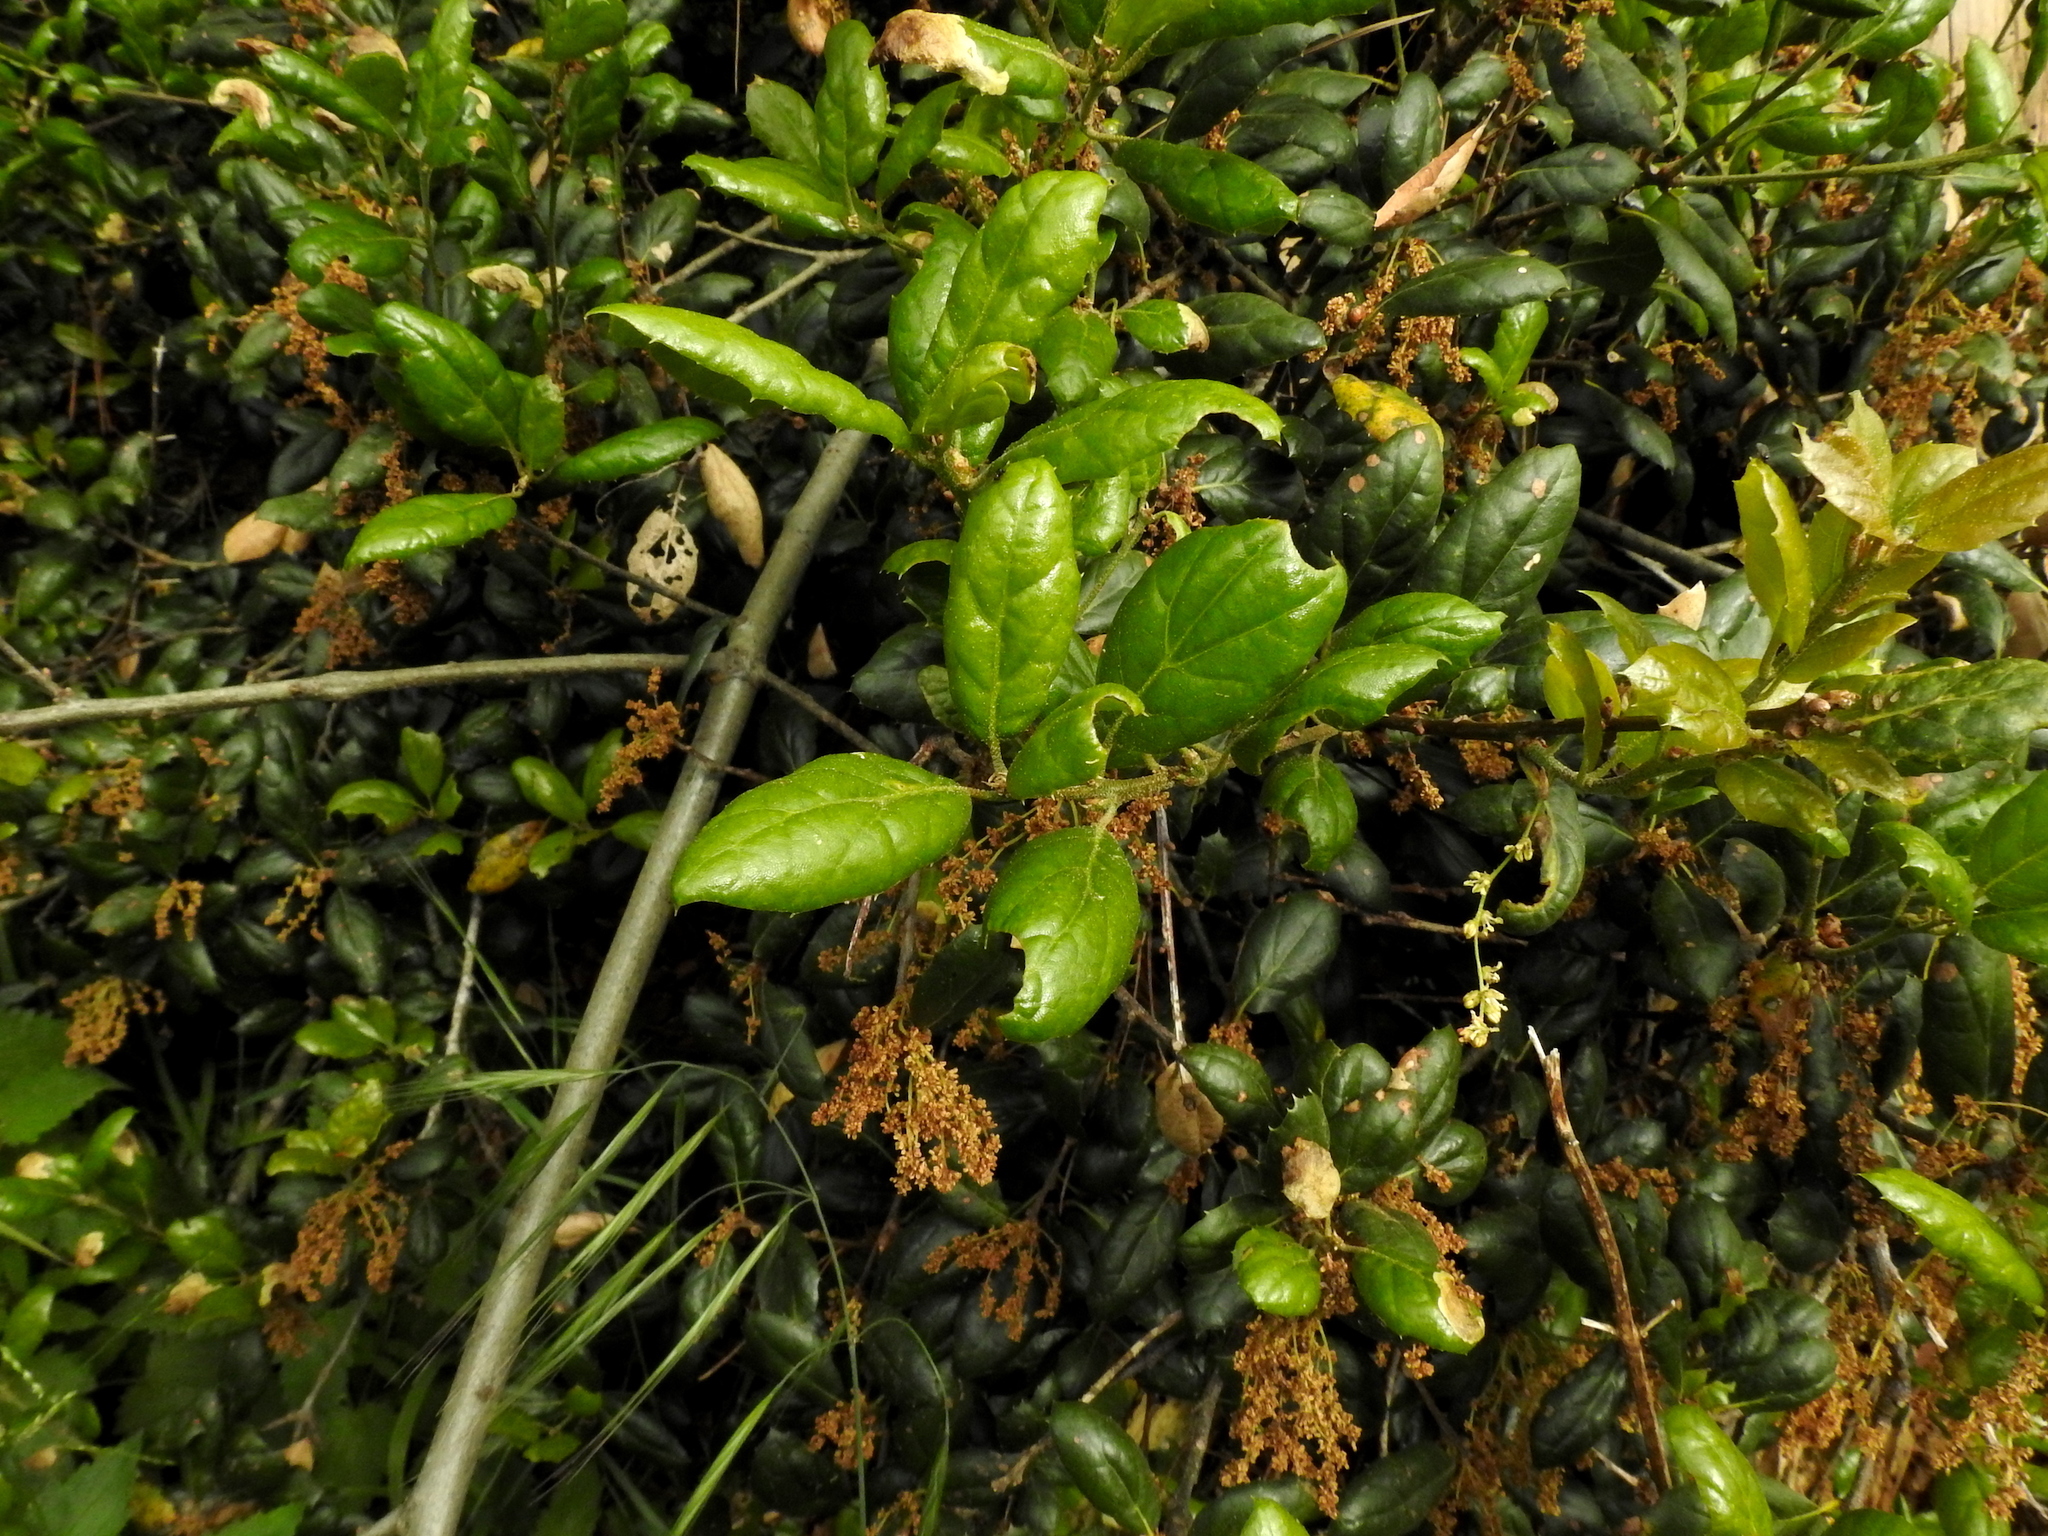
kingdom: Plantae
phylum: Tracheophyta
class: Magnoliopsida
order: Fagales
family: Fagaceae
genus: Quercus
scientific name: Quercus agrifolia
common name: California live oak
